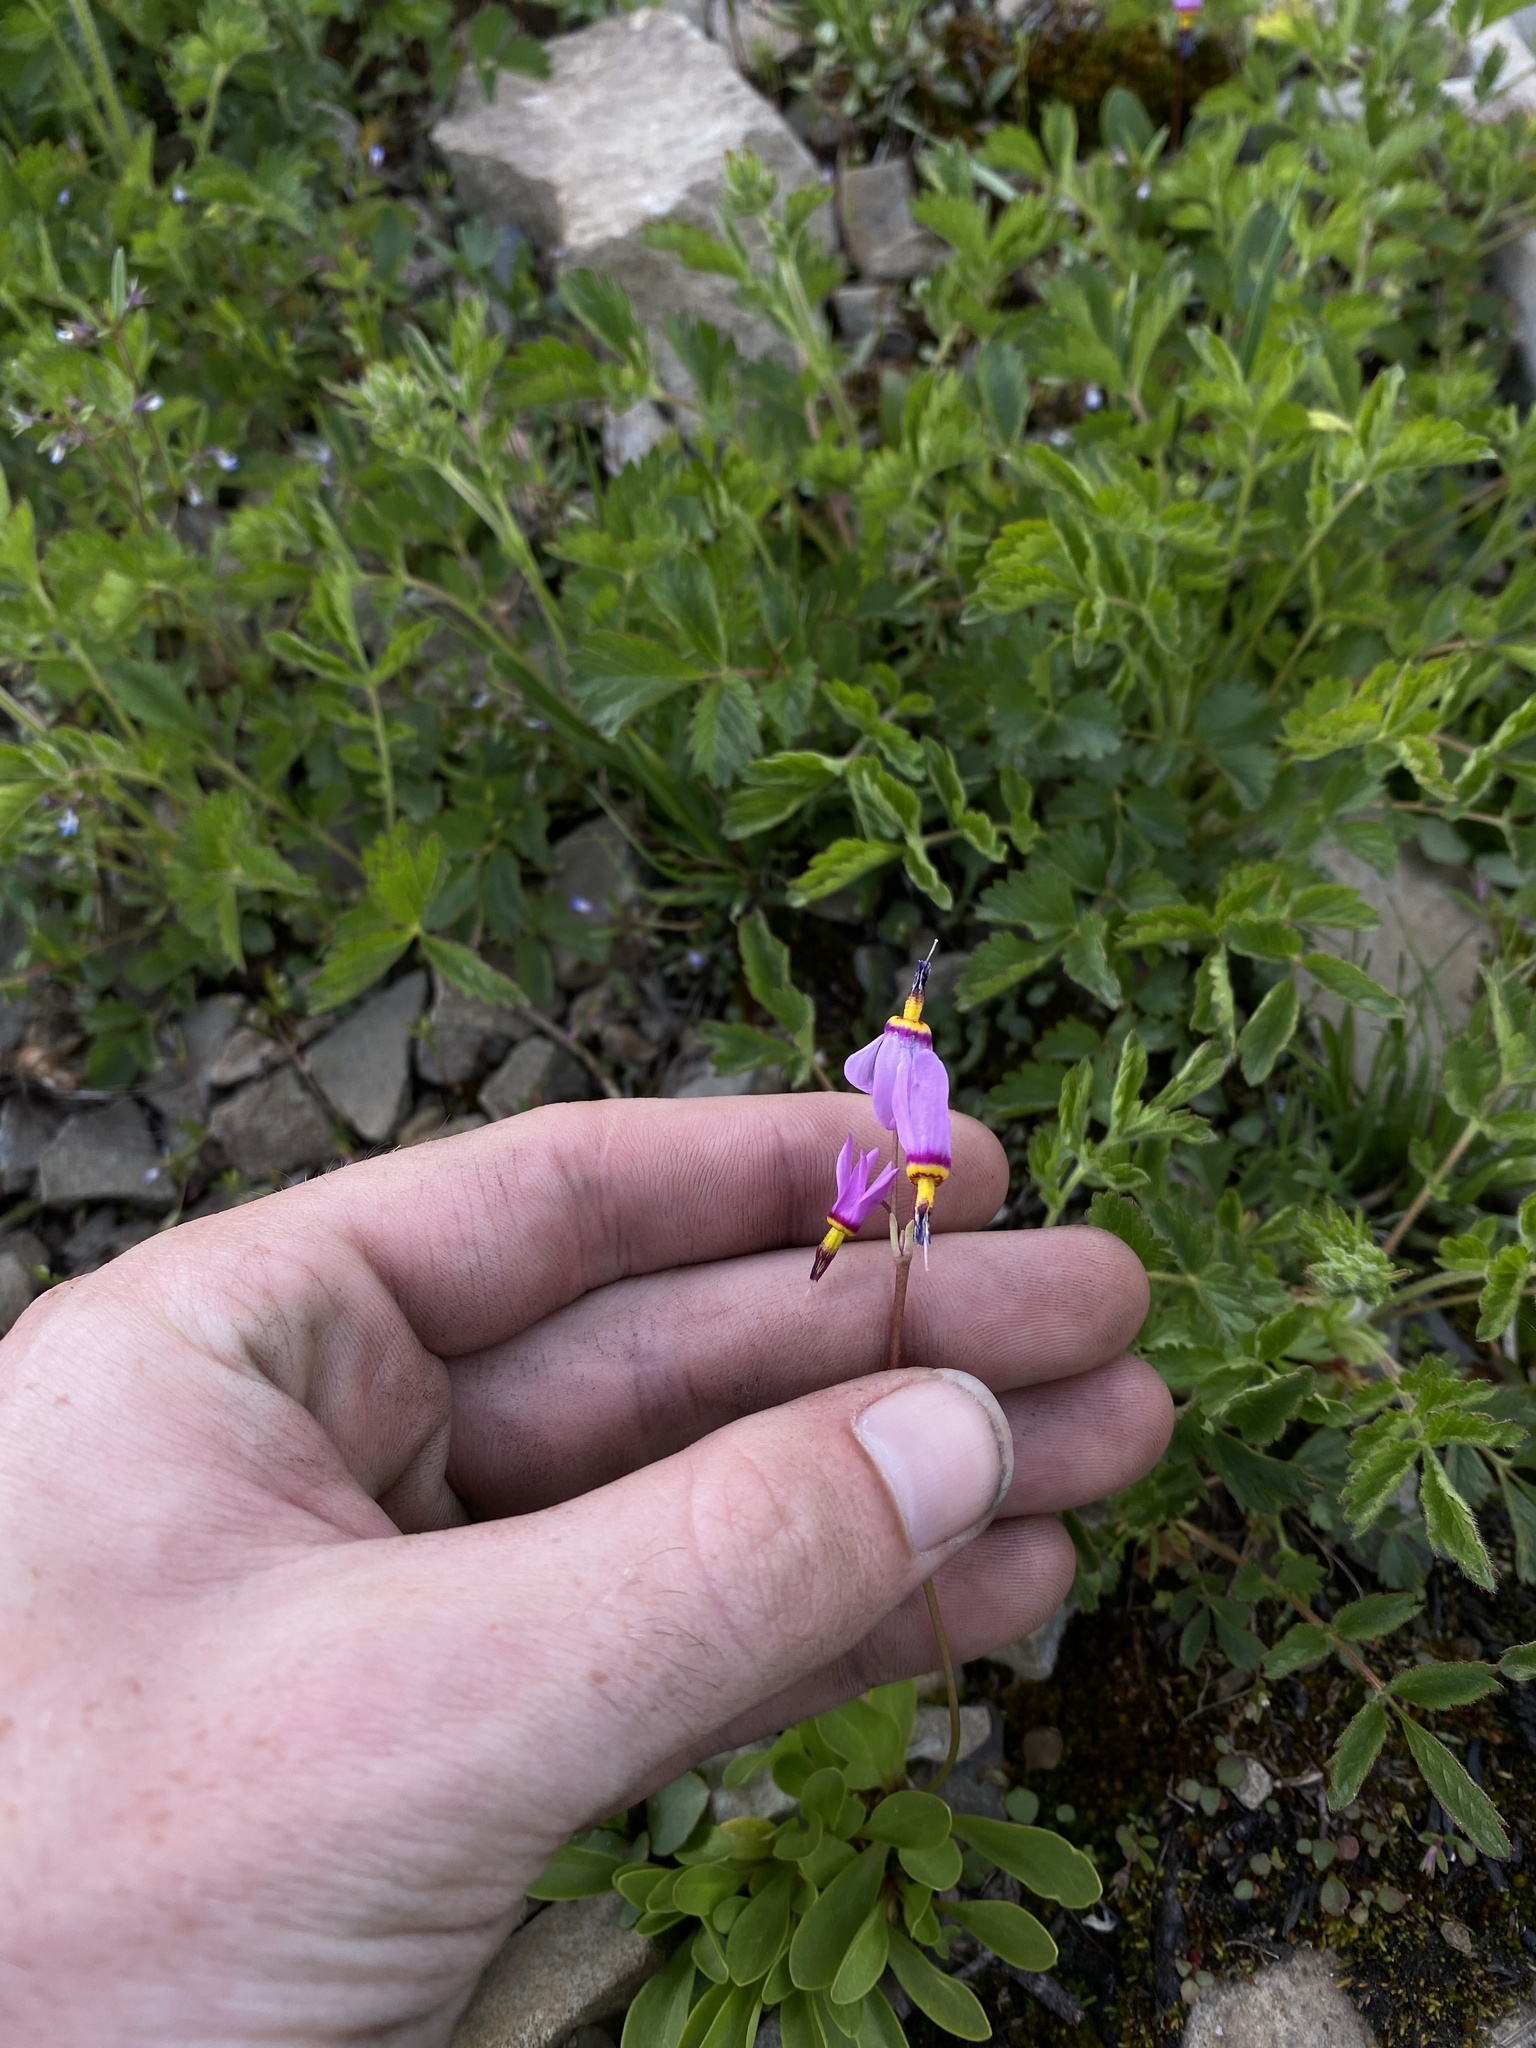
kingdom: Plantae
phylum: Tracheophyta
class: Magnoliopsida
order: Ericales
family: Primulaceae
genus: Dodecatheon
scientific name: Dodecatheon pulchellum
